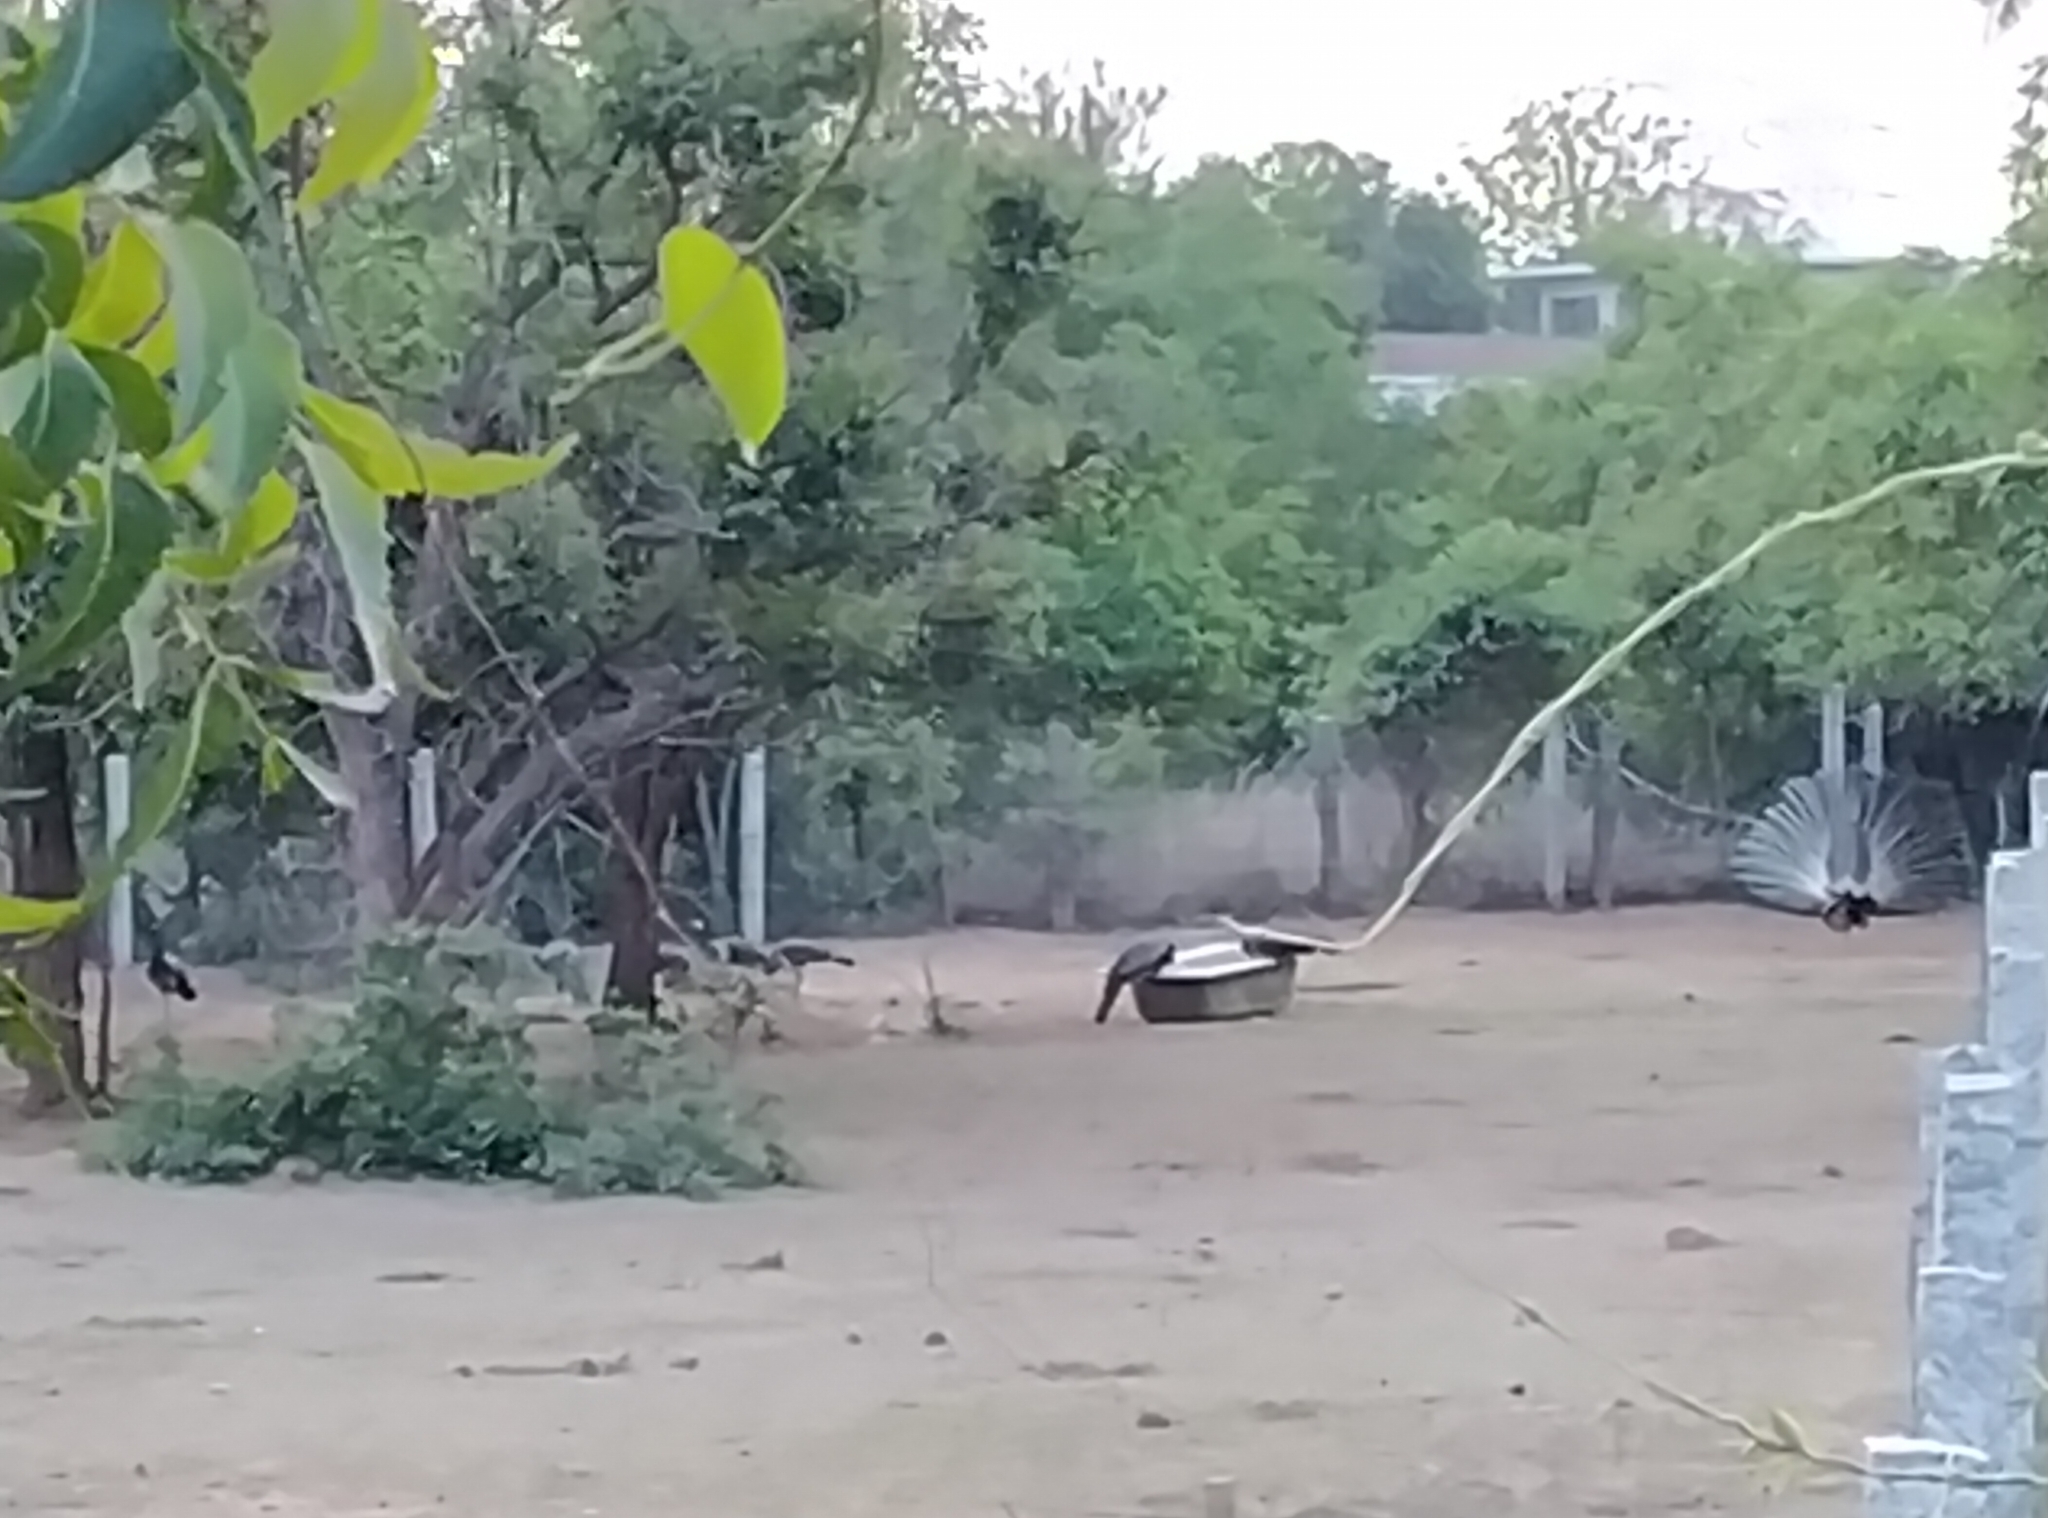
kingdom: Animalia
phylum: Chordata
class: Aves
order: Galliformes
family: Phasianidae
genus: Pavo
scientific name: Pavo cristatus
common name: Indian peafowl
